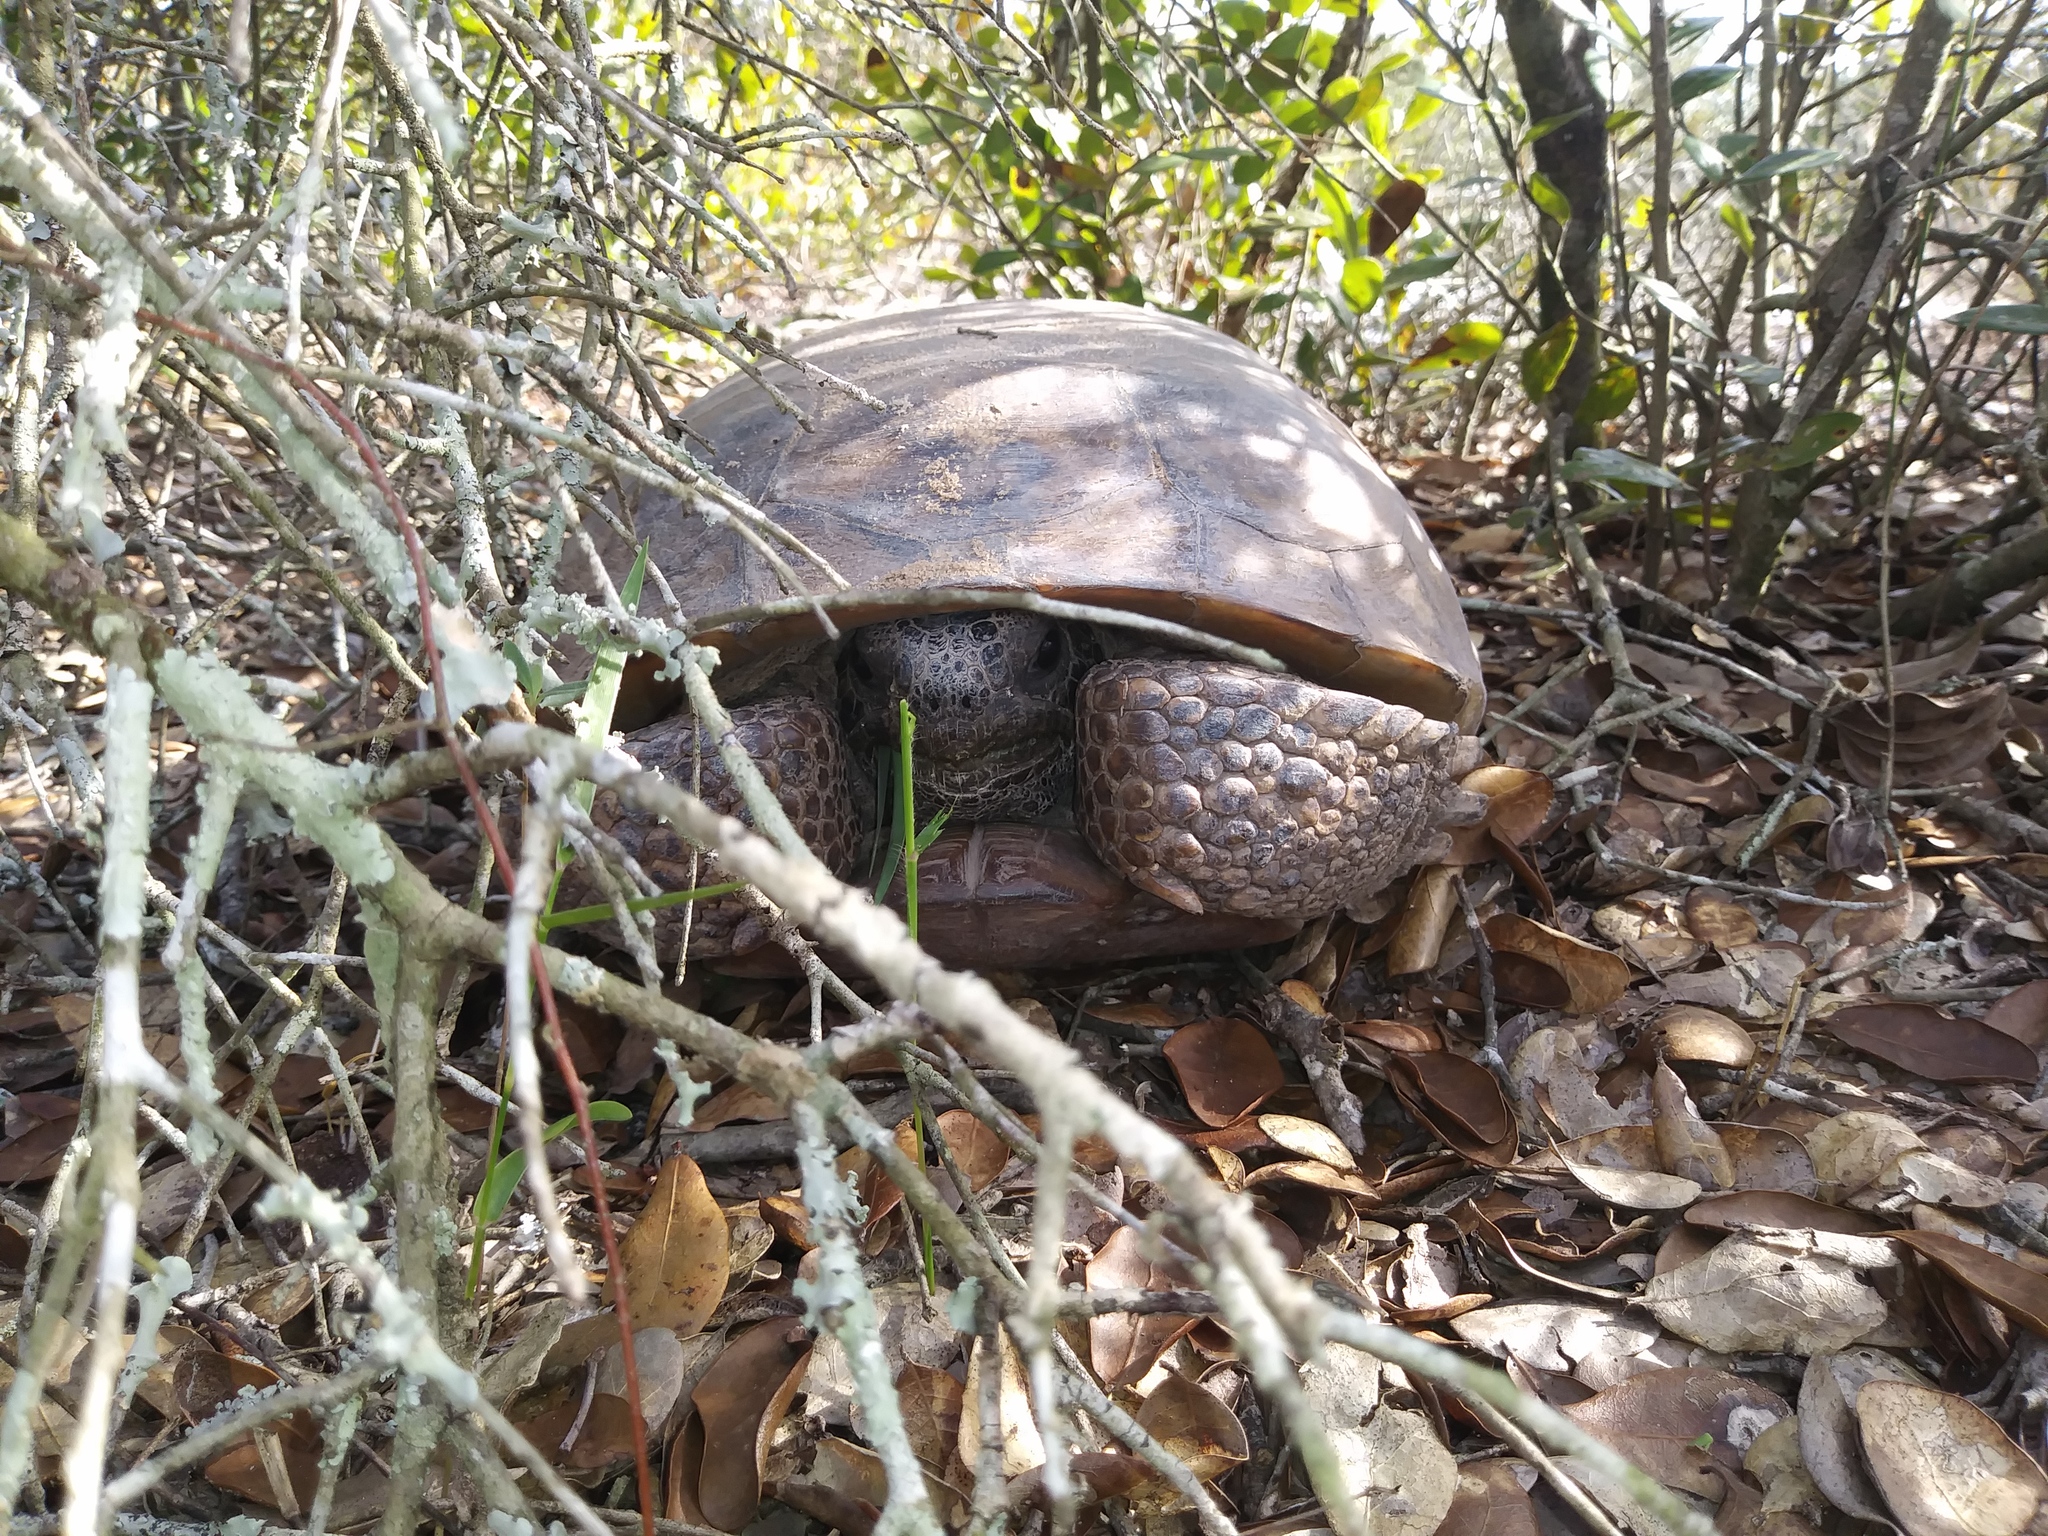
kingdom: Animalia
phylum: Chordata
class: Testudines
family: Testudinidae
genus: Gopherus
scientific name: Gopherus polyphemus
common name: Florida gopher tortoise
